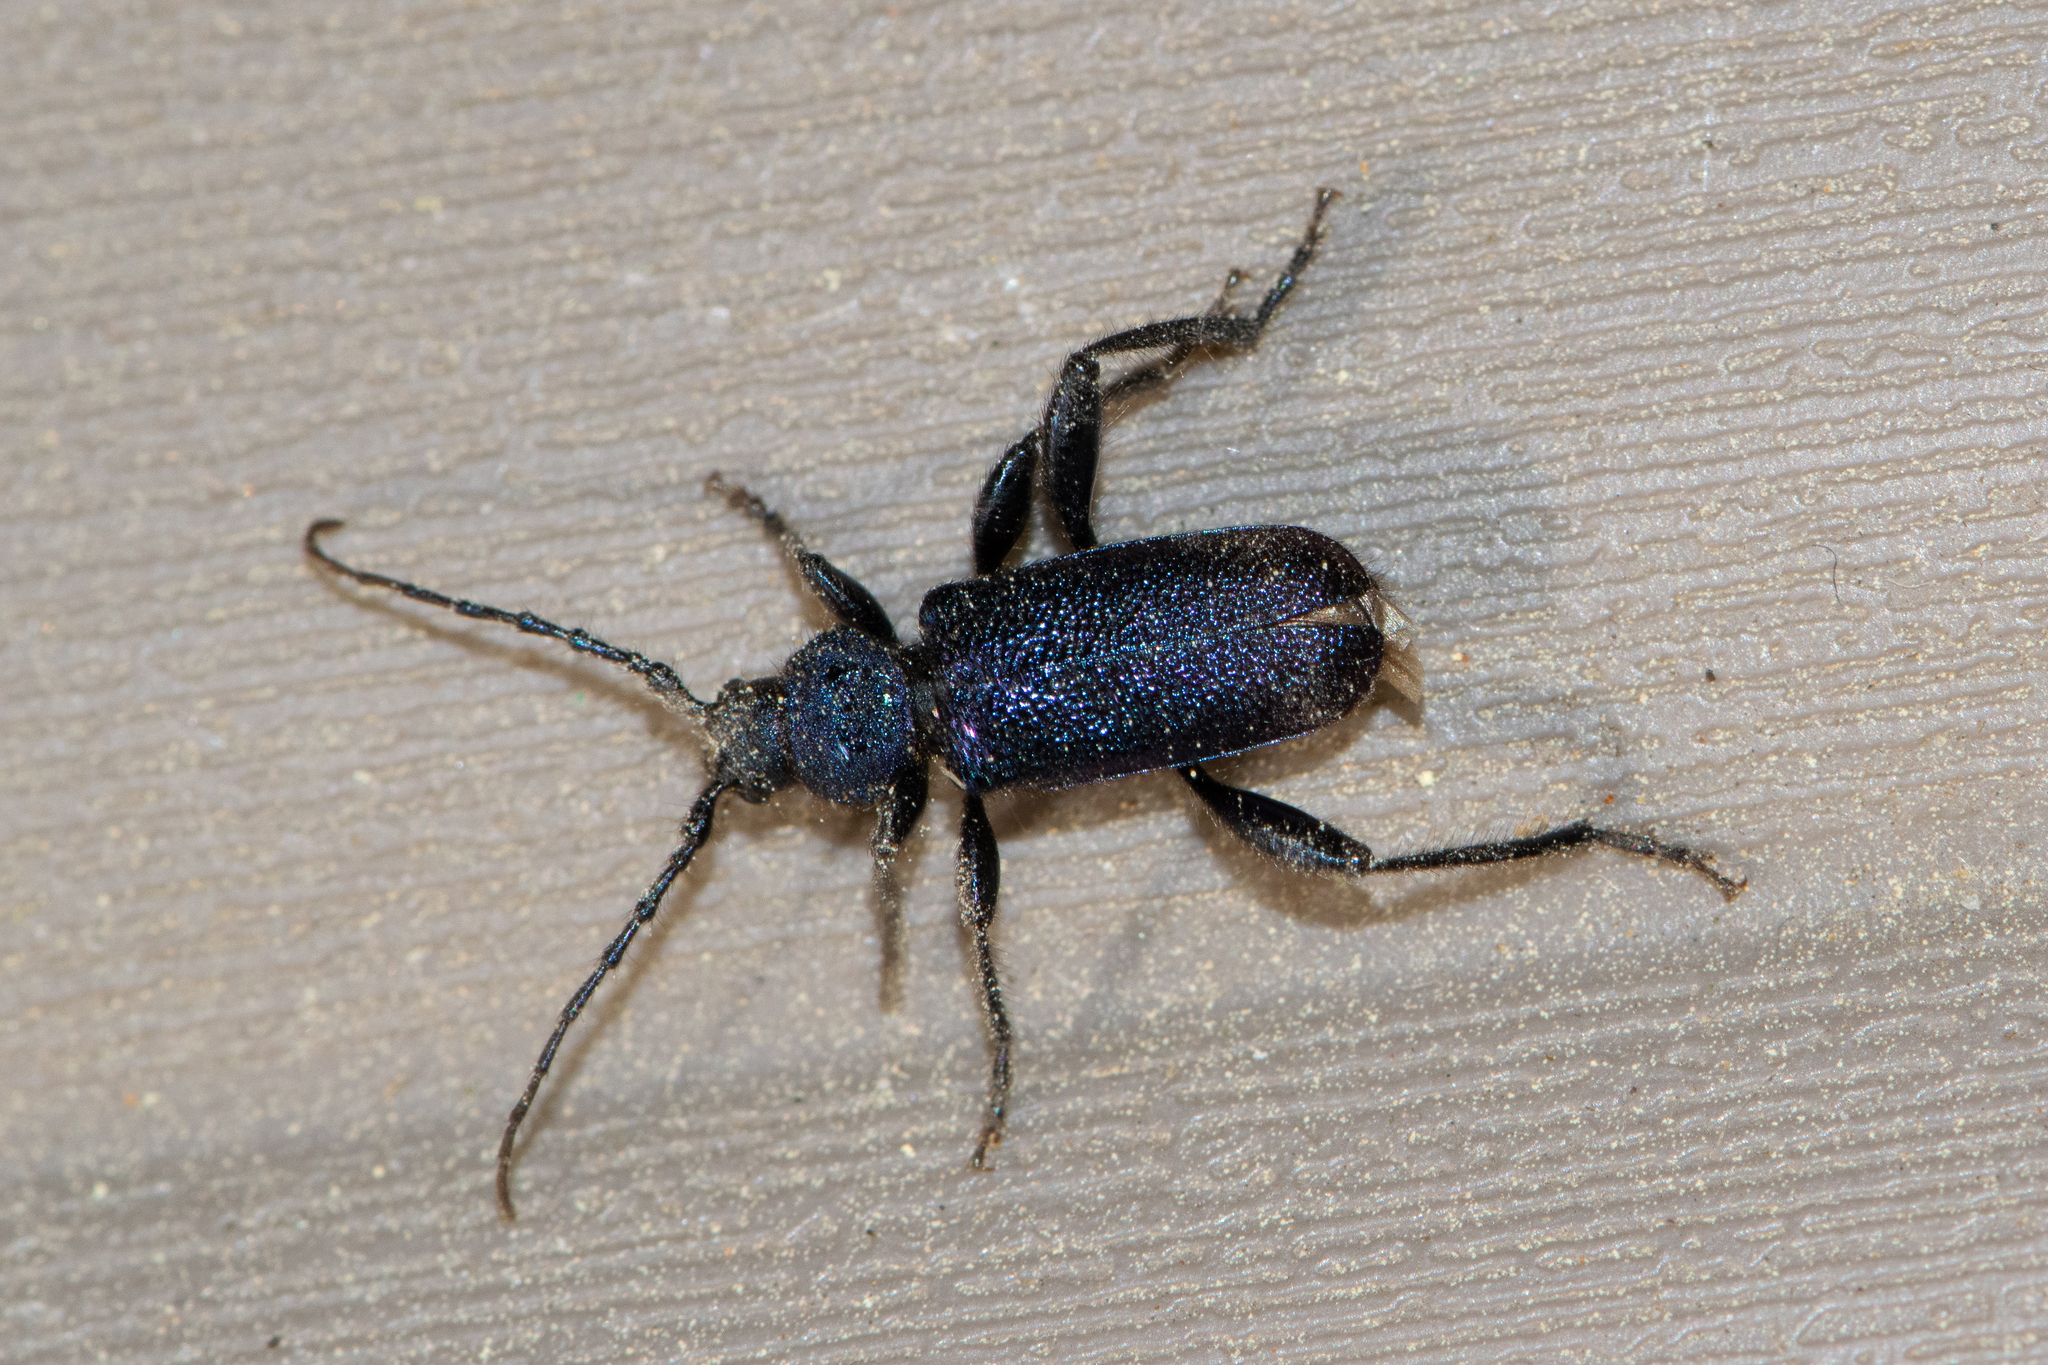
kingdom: Animalia
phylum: Arthropoda
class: Insecta
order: Coleoptera
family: Cerambycidae
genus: Callidium
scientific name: Callidium violaceum
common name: Violet tanbark beetle
